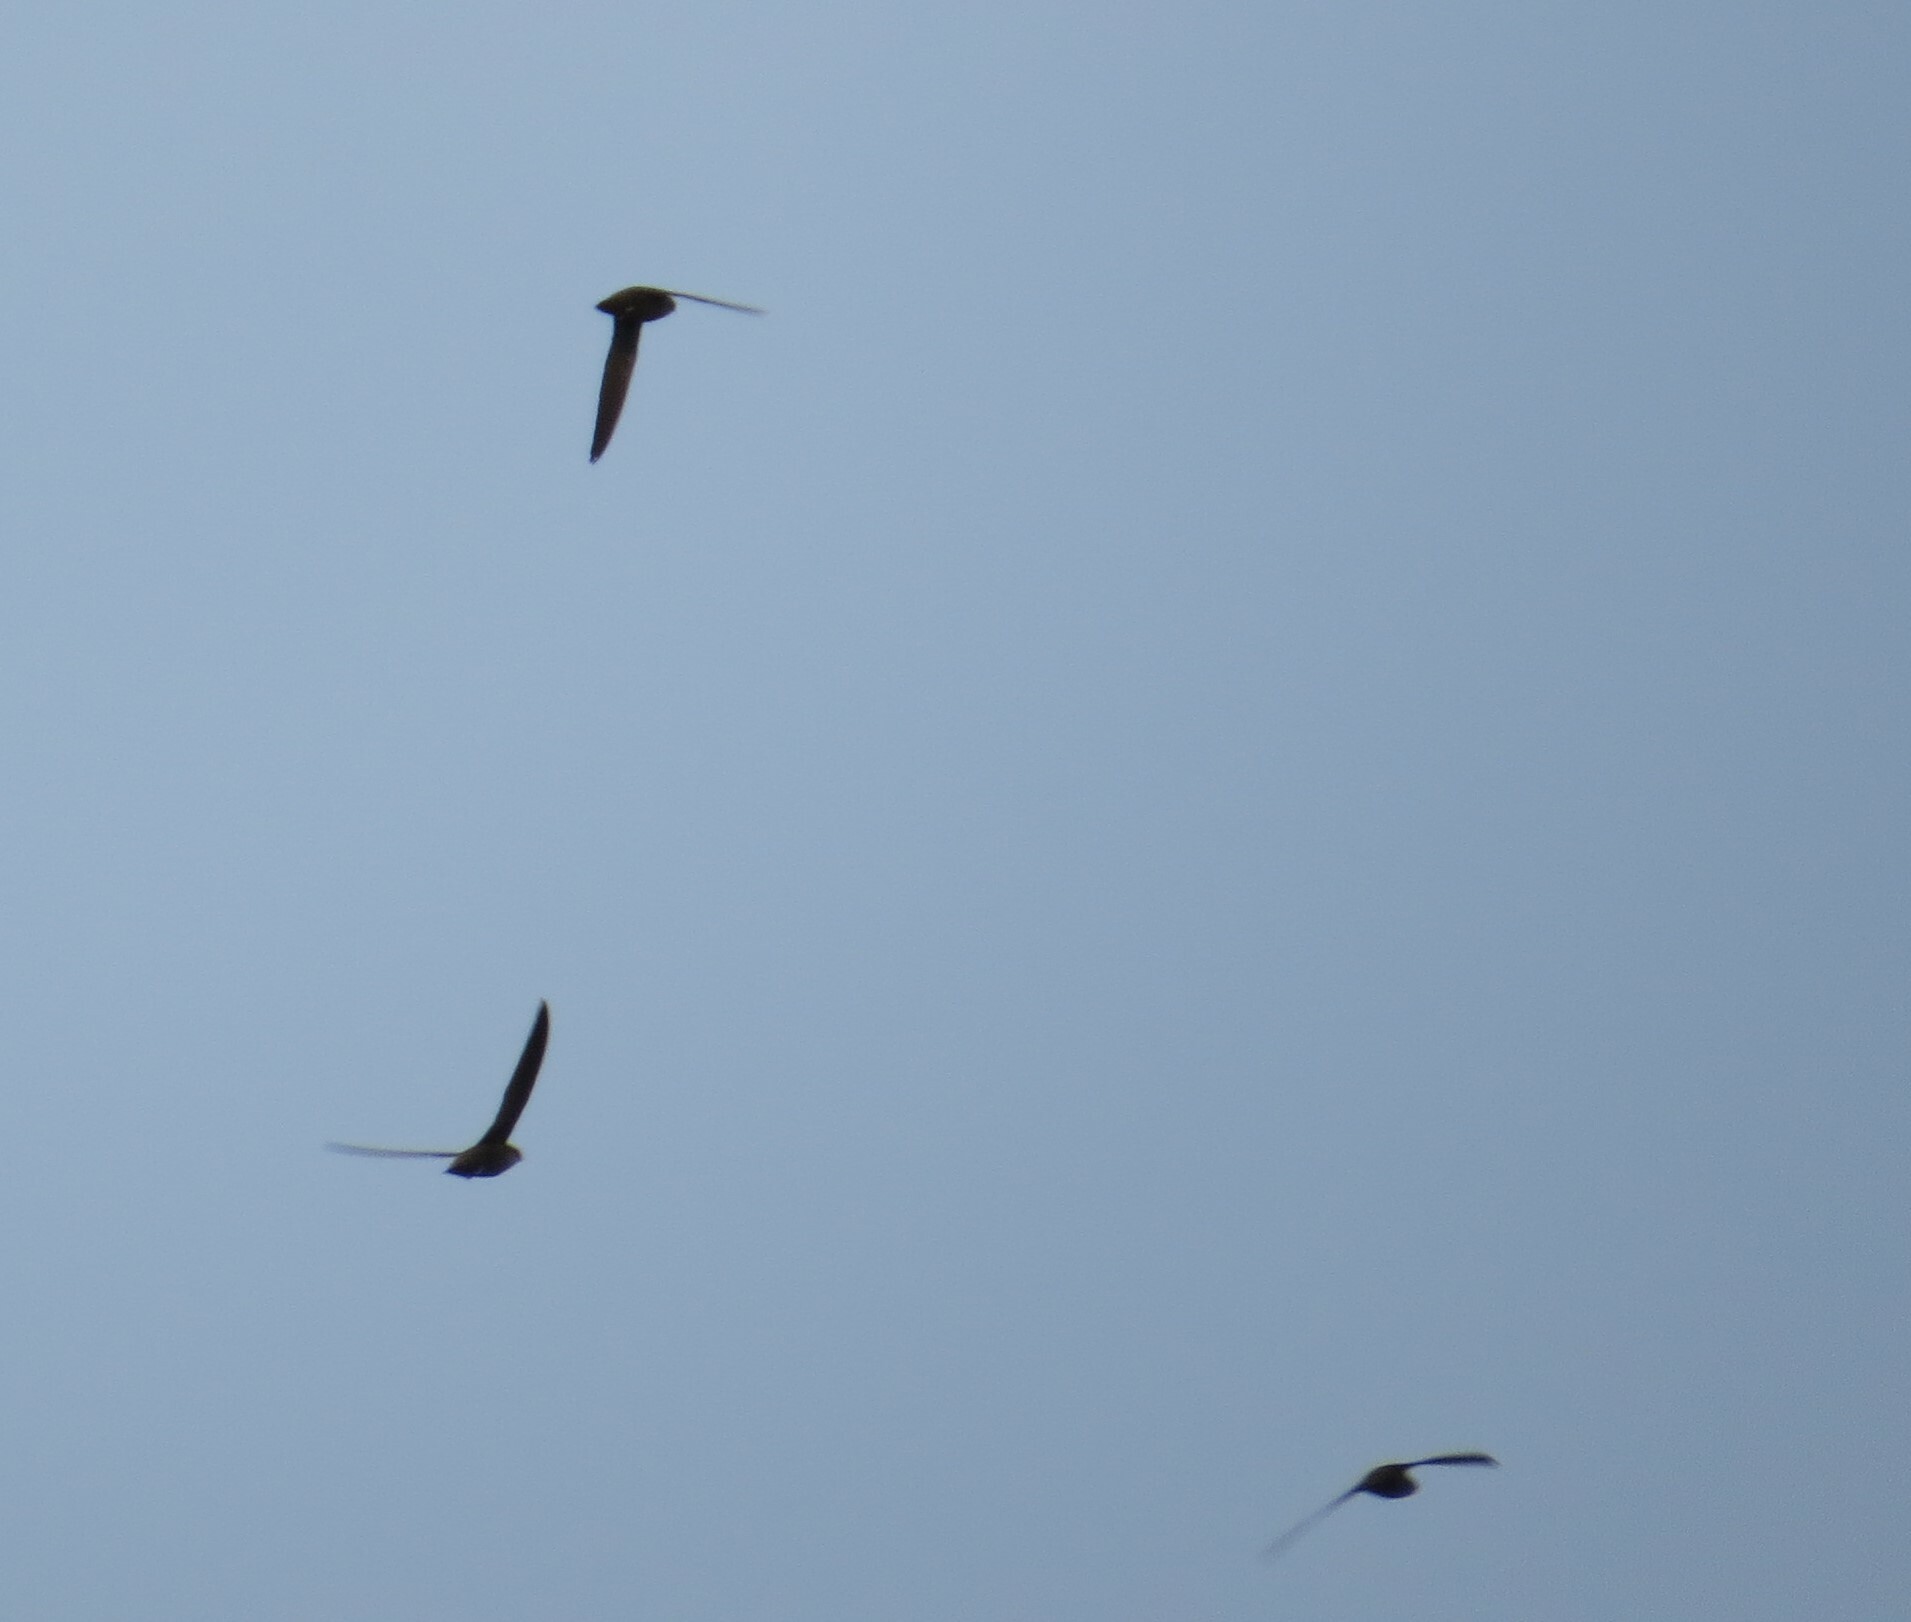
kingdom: Animalia
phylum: Chordata
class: Aves
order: Apodiformes
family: Apodidae
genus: Chaetura
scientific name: Chaetura pelagica
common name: Chimney swift
